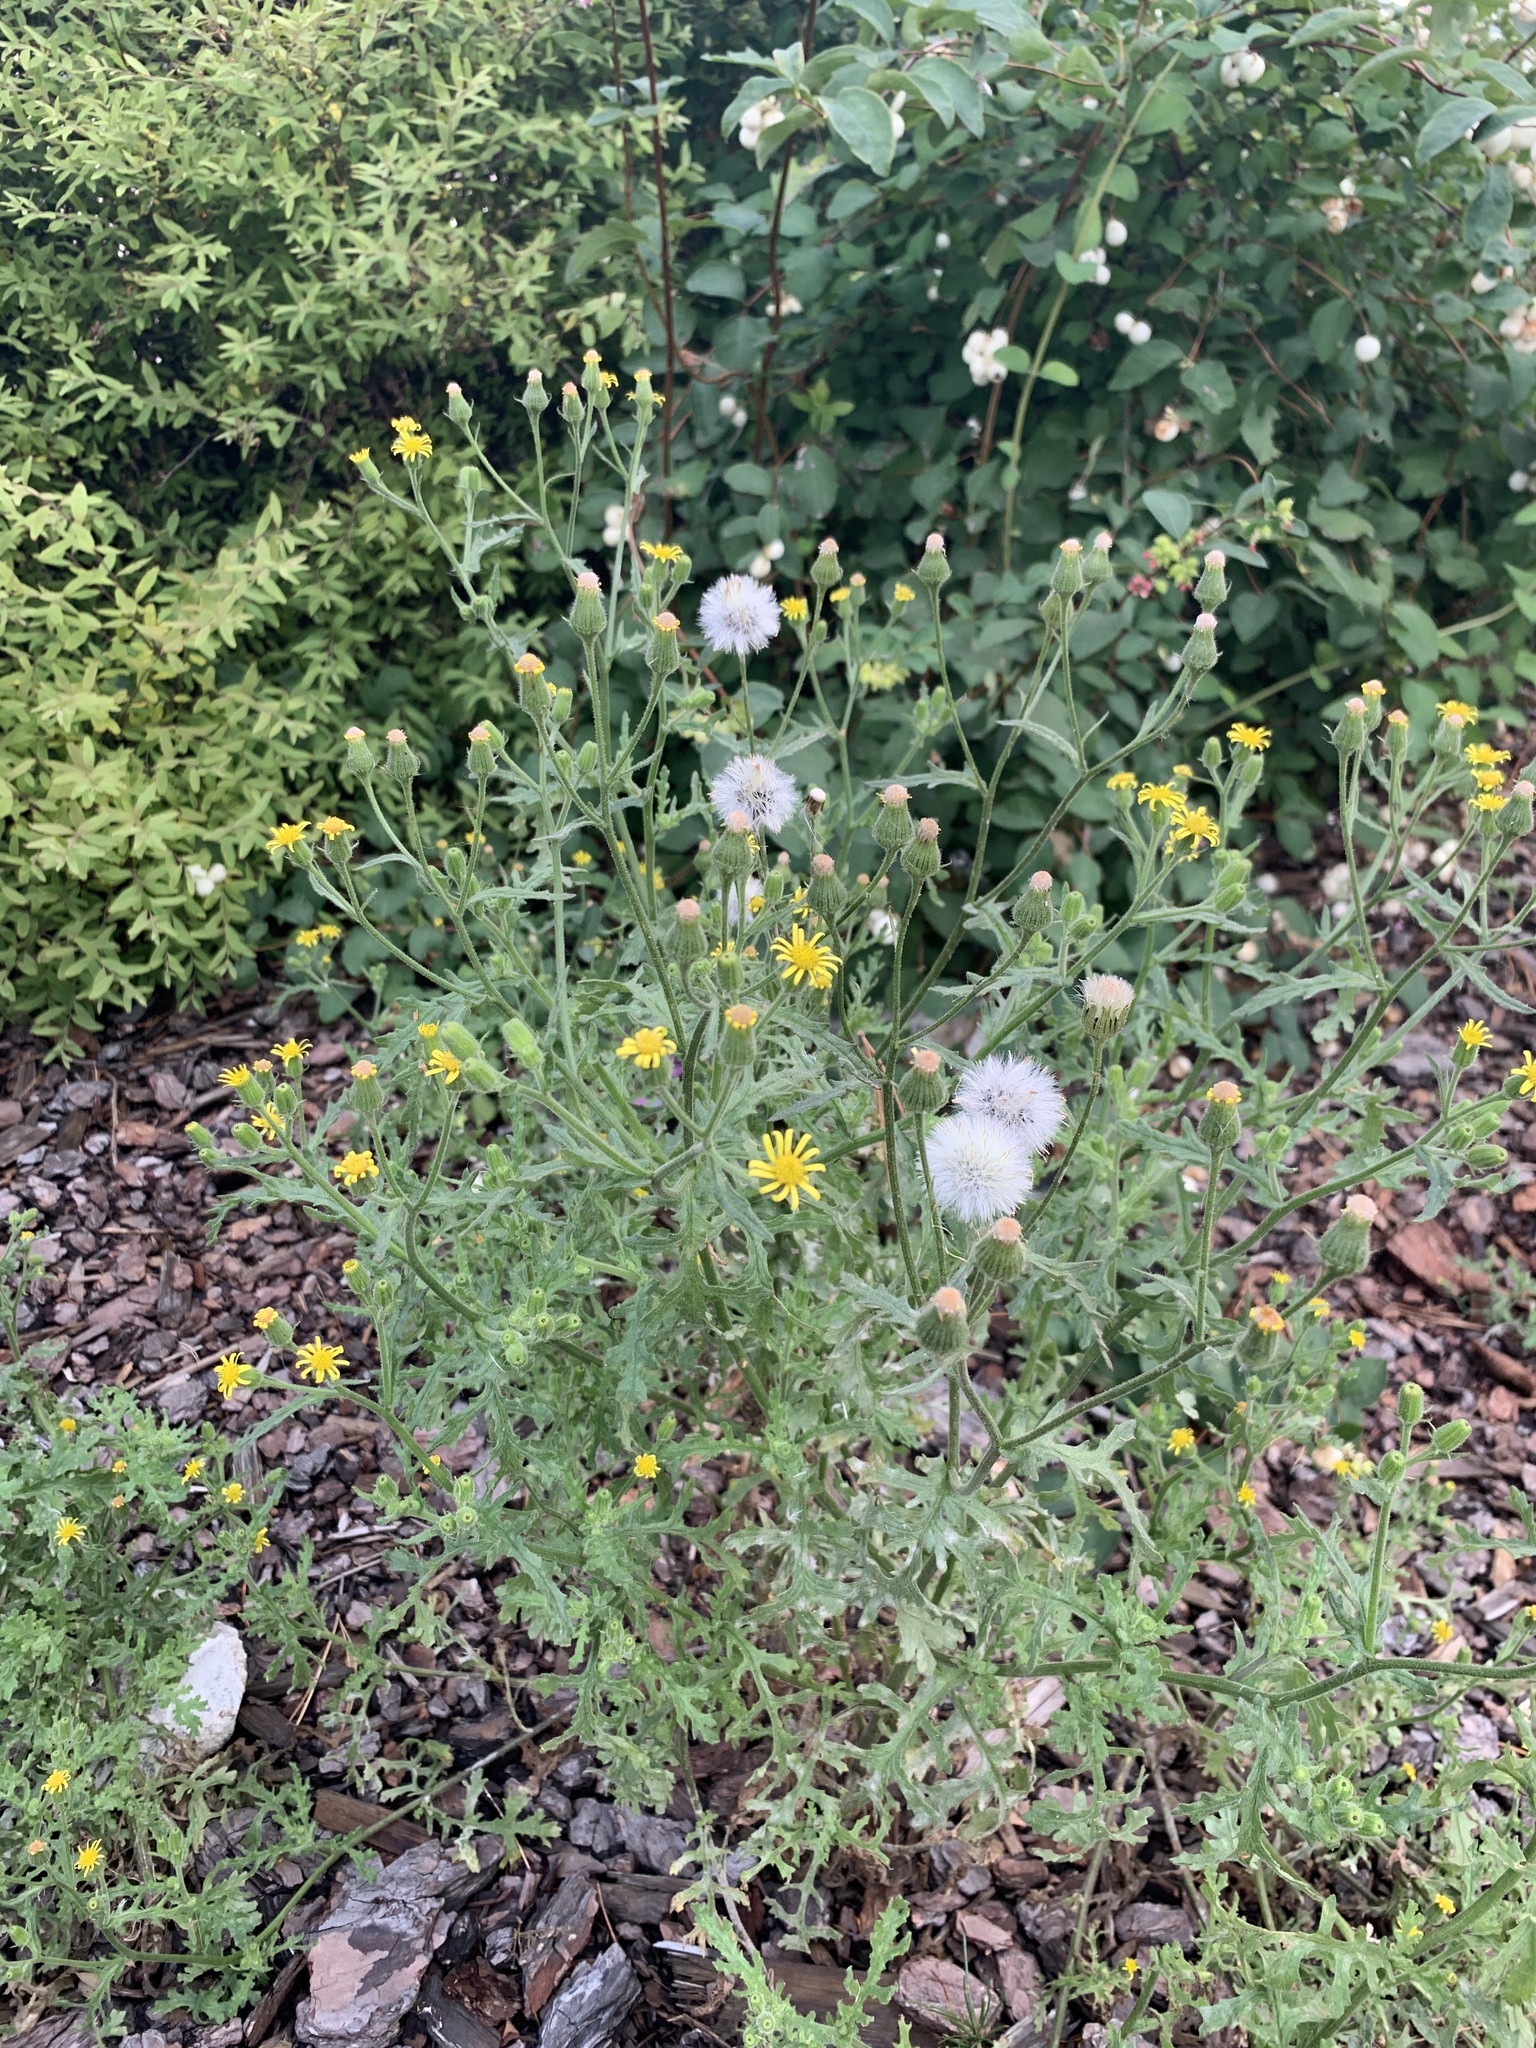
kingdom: Plantae
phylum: Tracheophyta
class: Magnoliopsida
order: Asterales
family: Asteraceae
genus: Senecio
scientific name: Senecio viscosus
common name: Sticky groundsel
